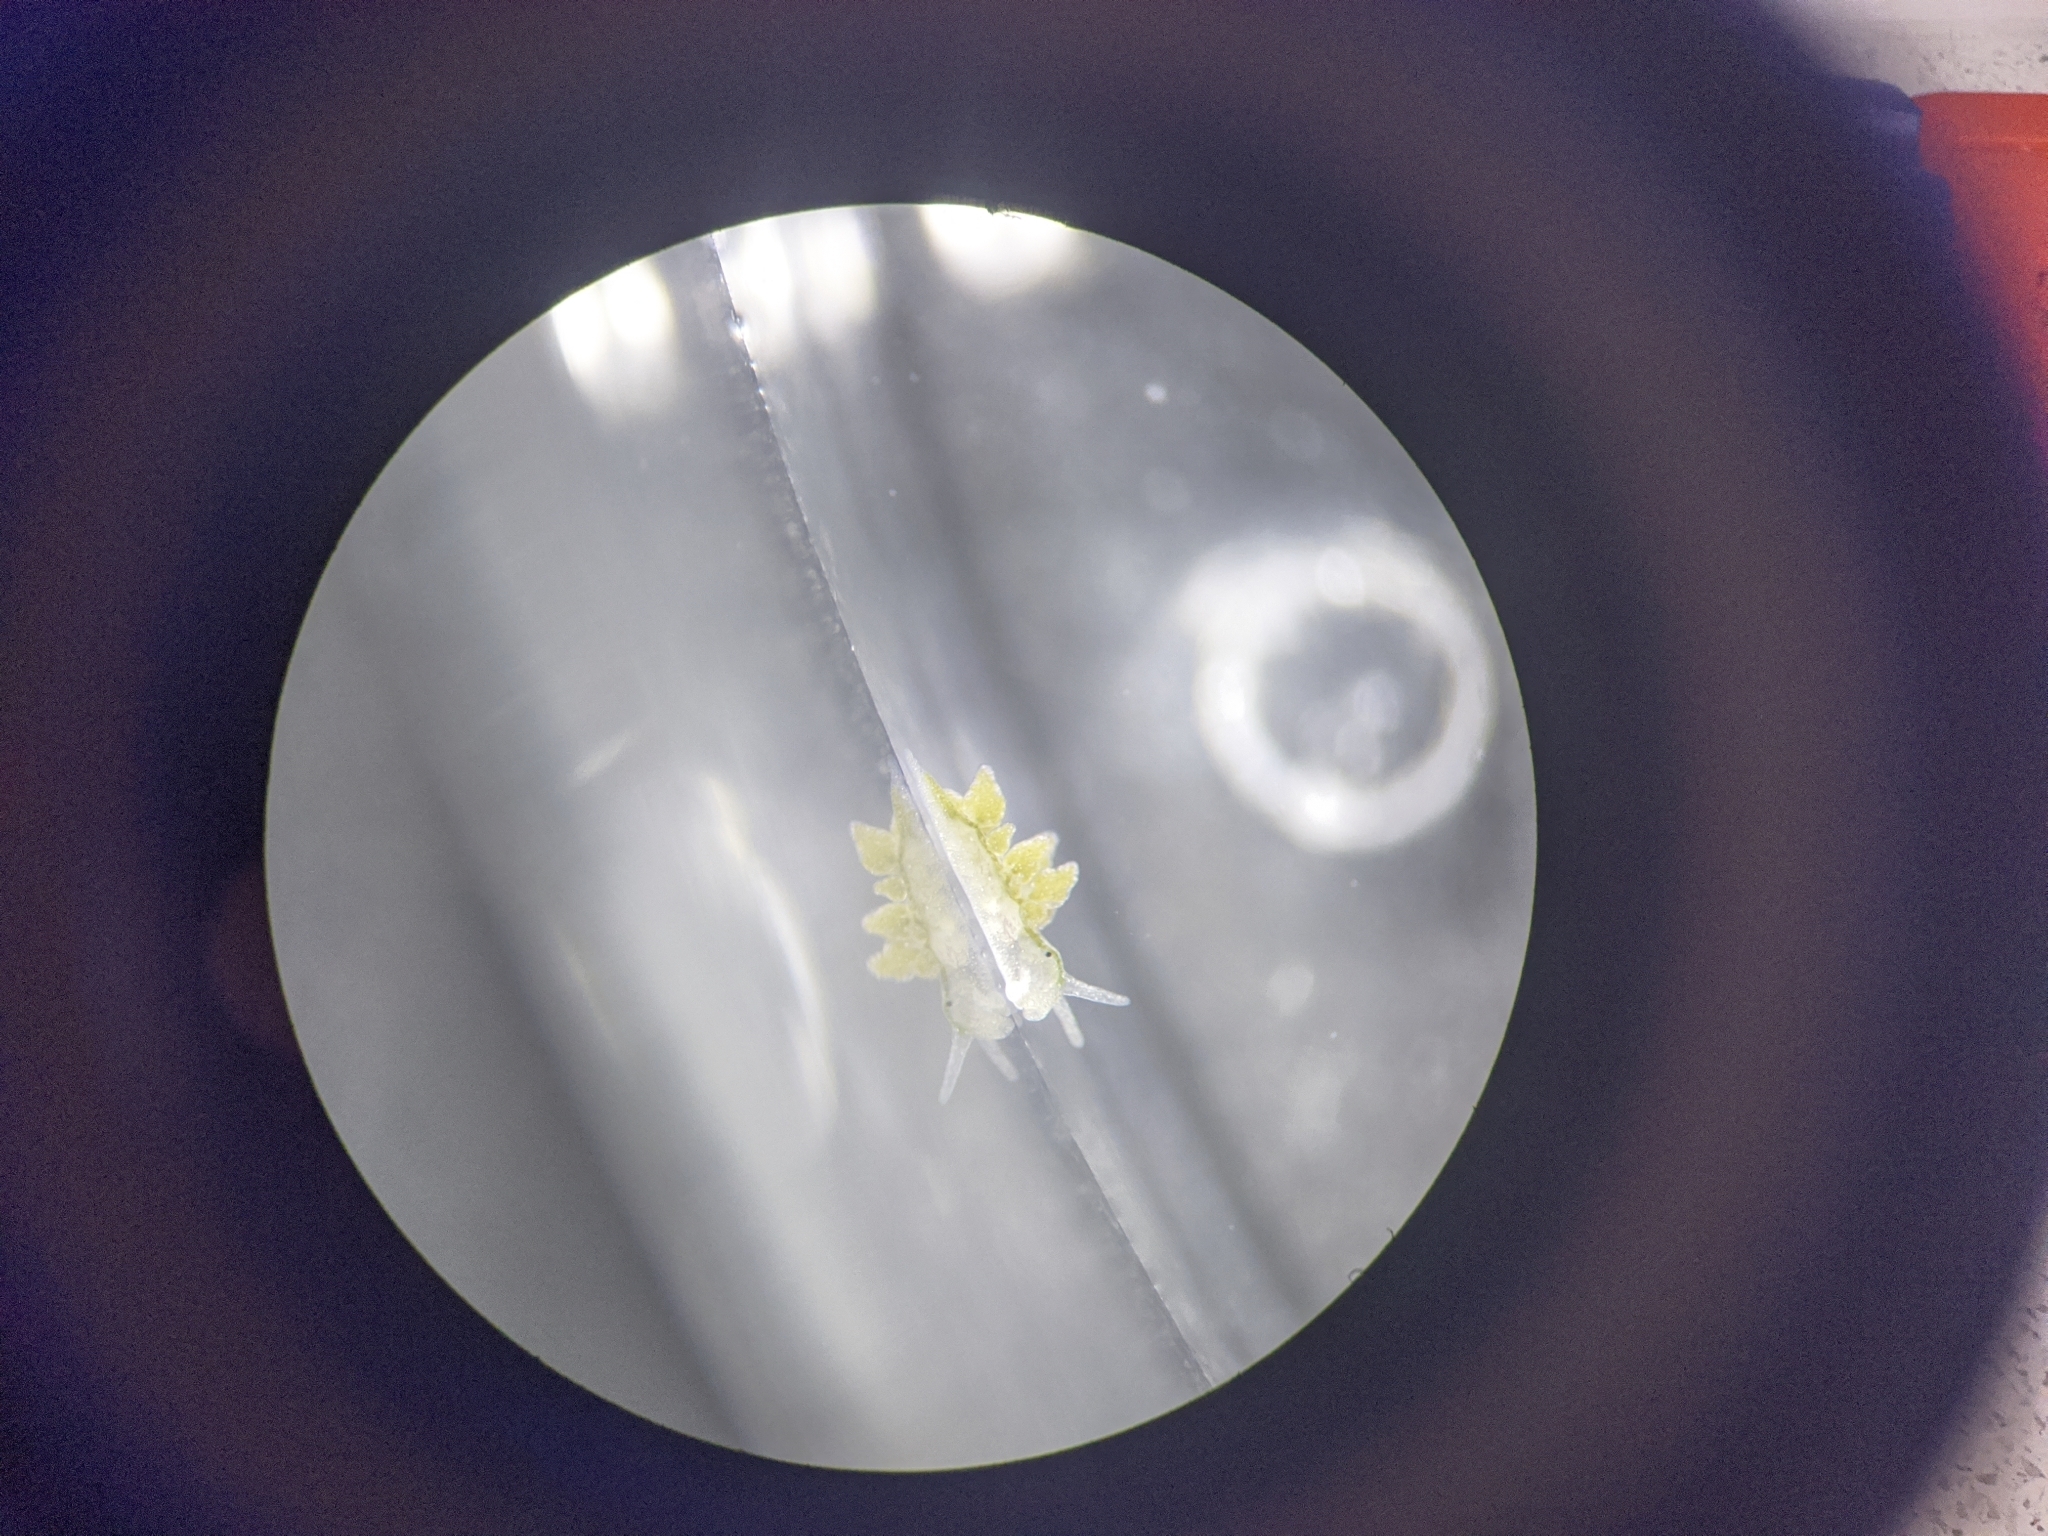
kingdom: Animalia
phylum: Mollusca
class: Gastropoda
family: Limapontiidae
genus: Ercolania
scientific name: Ercolania viridis
